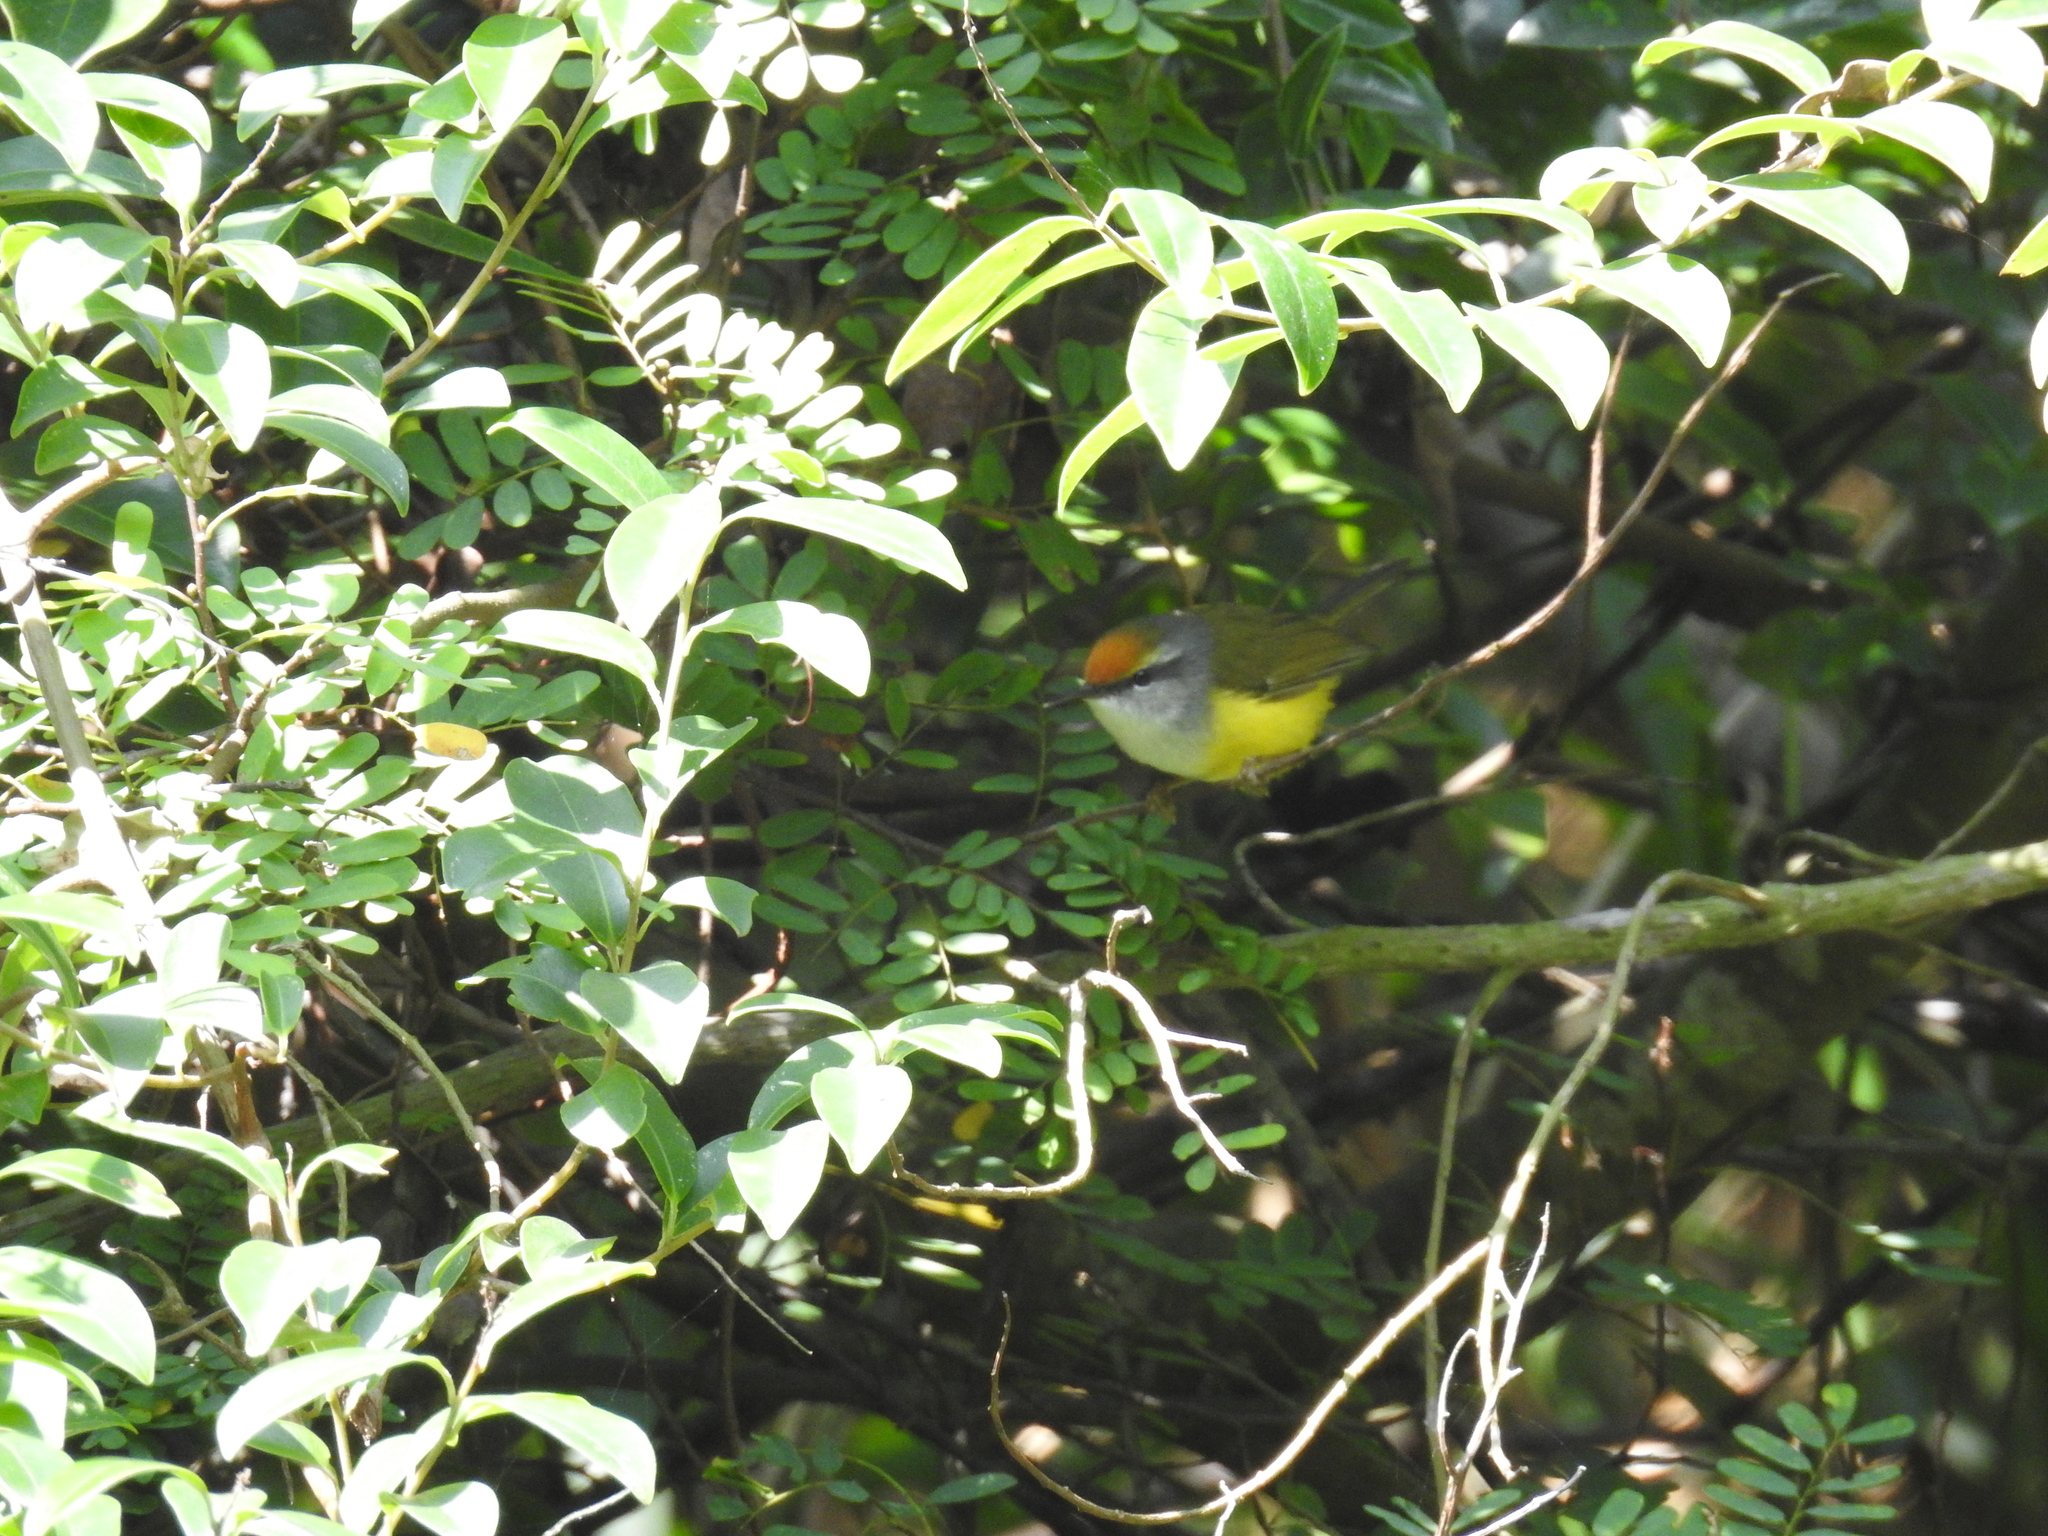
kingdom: Animalia
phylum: Chordata
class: Aves
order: Passeriformes
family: Cettiidae
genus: Phyllergates
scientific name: Phyllergates cuculatus
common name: Mountain tailorbird
